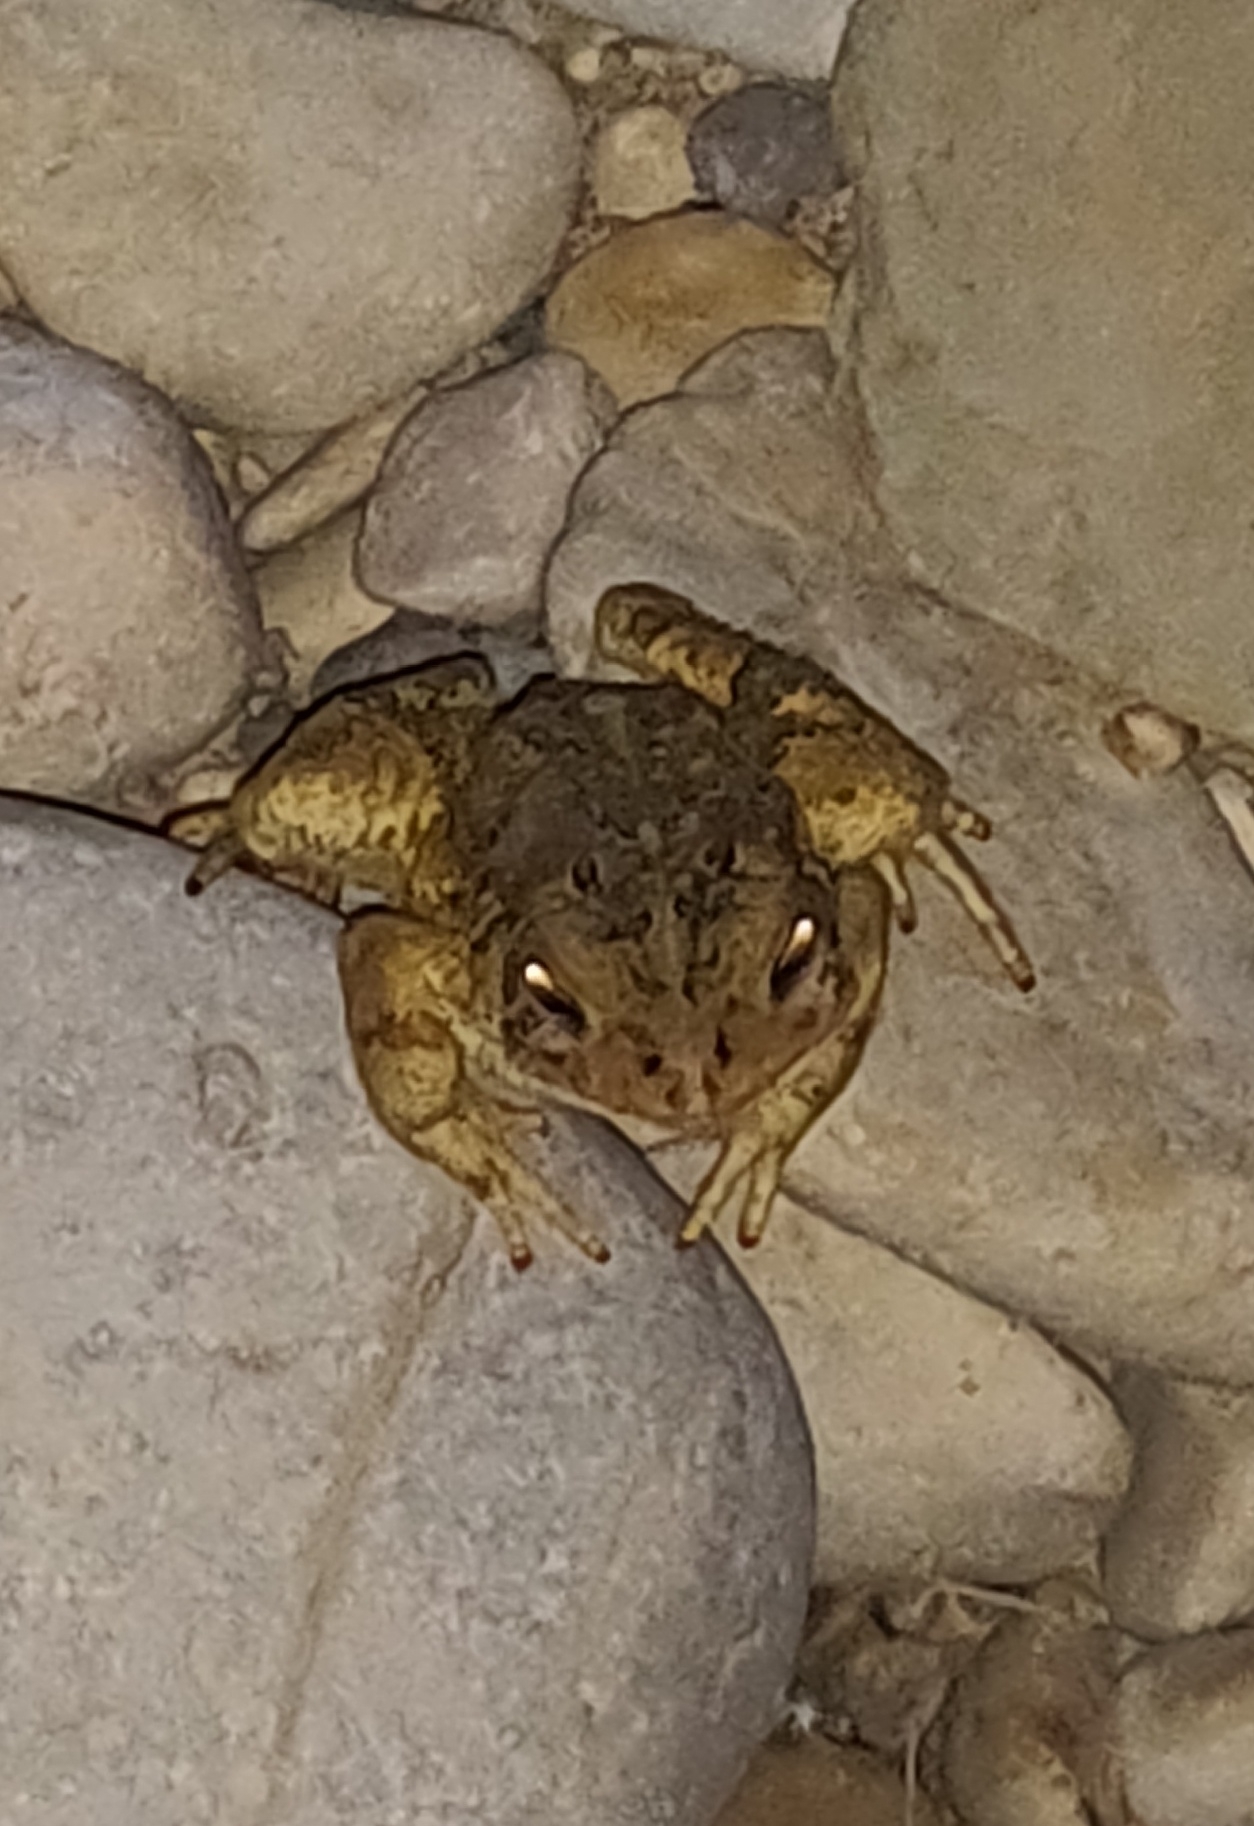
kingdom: Animalia
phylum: Chordata
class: Amphibia
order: Anura
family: Bufonidae
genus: Anaxyrus
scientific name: Anaxyrus americanus
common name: American toad
